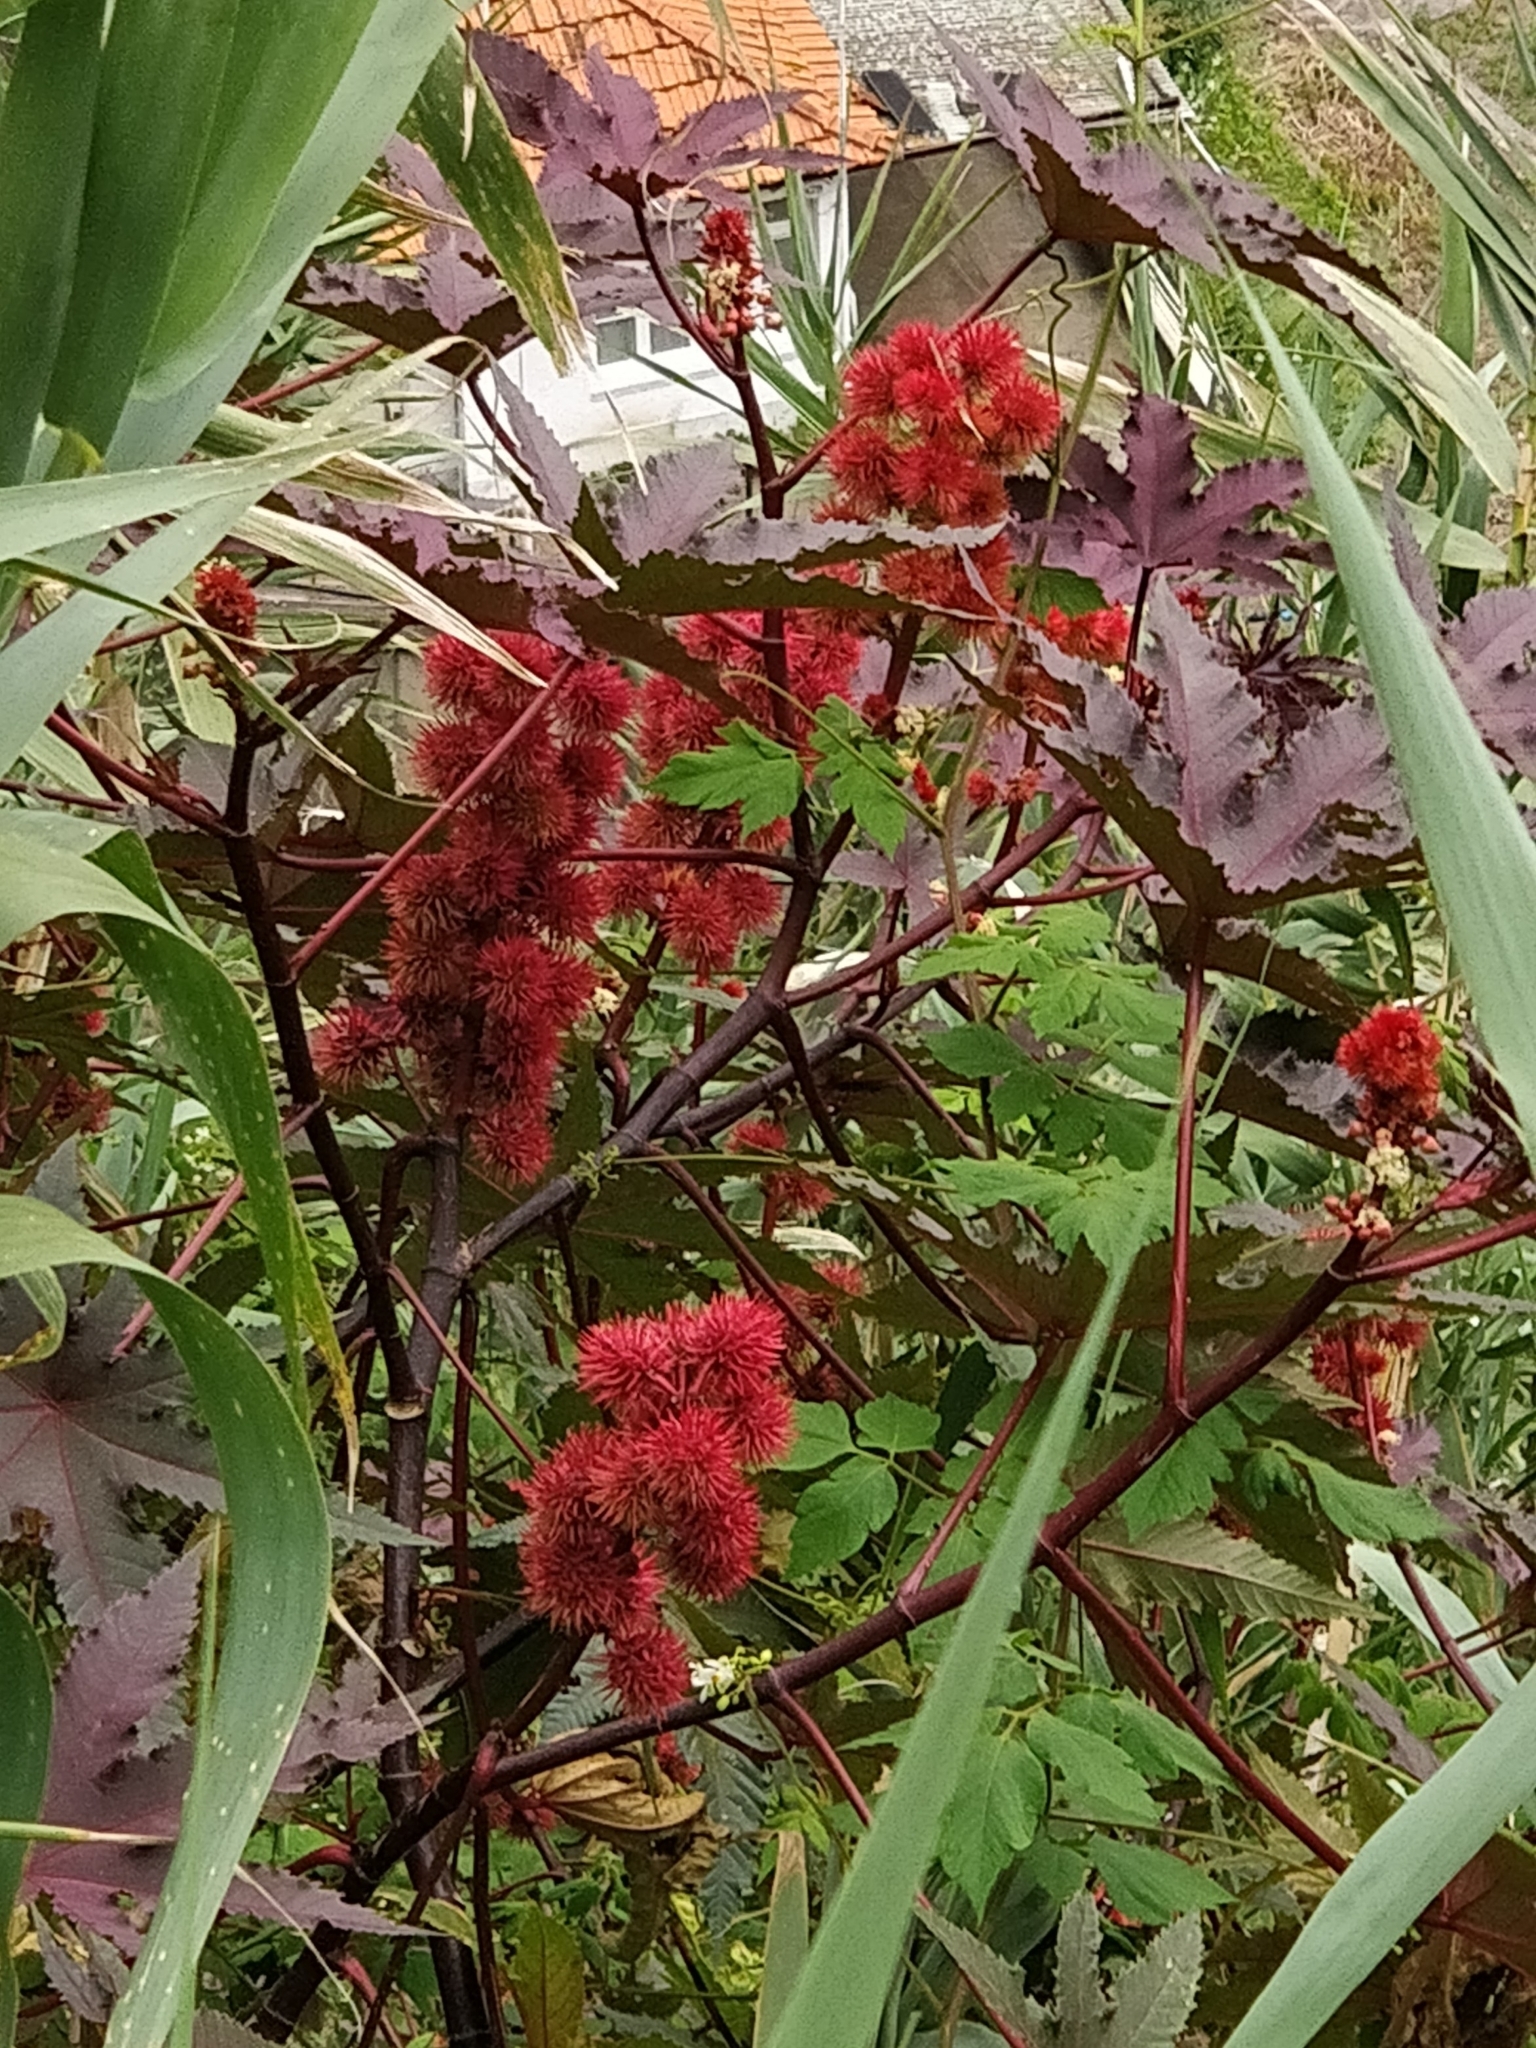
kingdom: Plantae
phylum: Tracheophyta
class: Magnoliopsida
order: Malpighiales
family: Euphorbiaceae
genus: Ricinus
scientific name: Ricinus communis
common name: Castor-oil-plant
